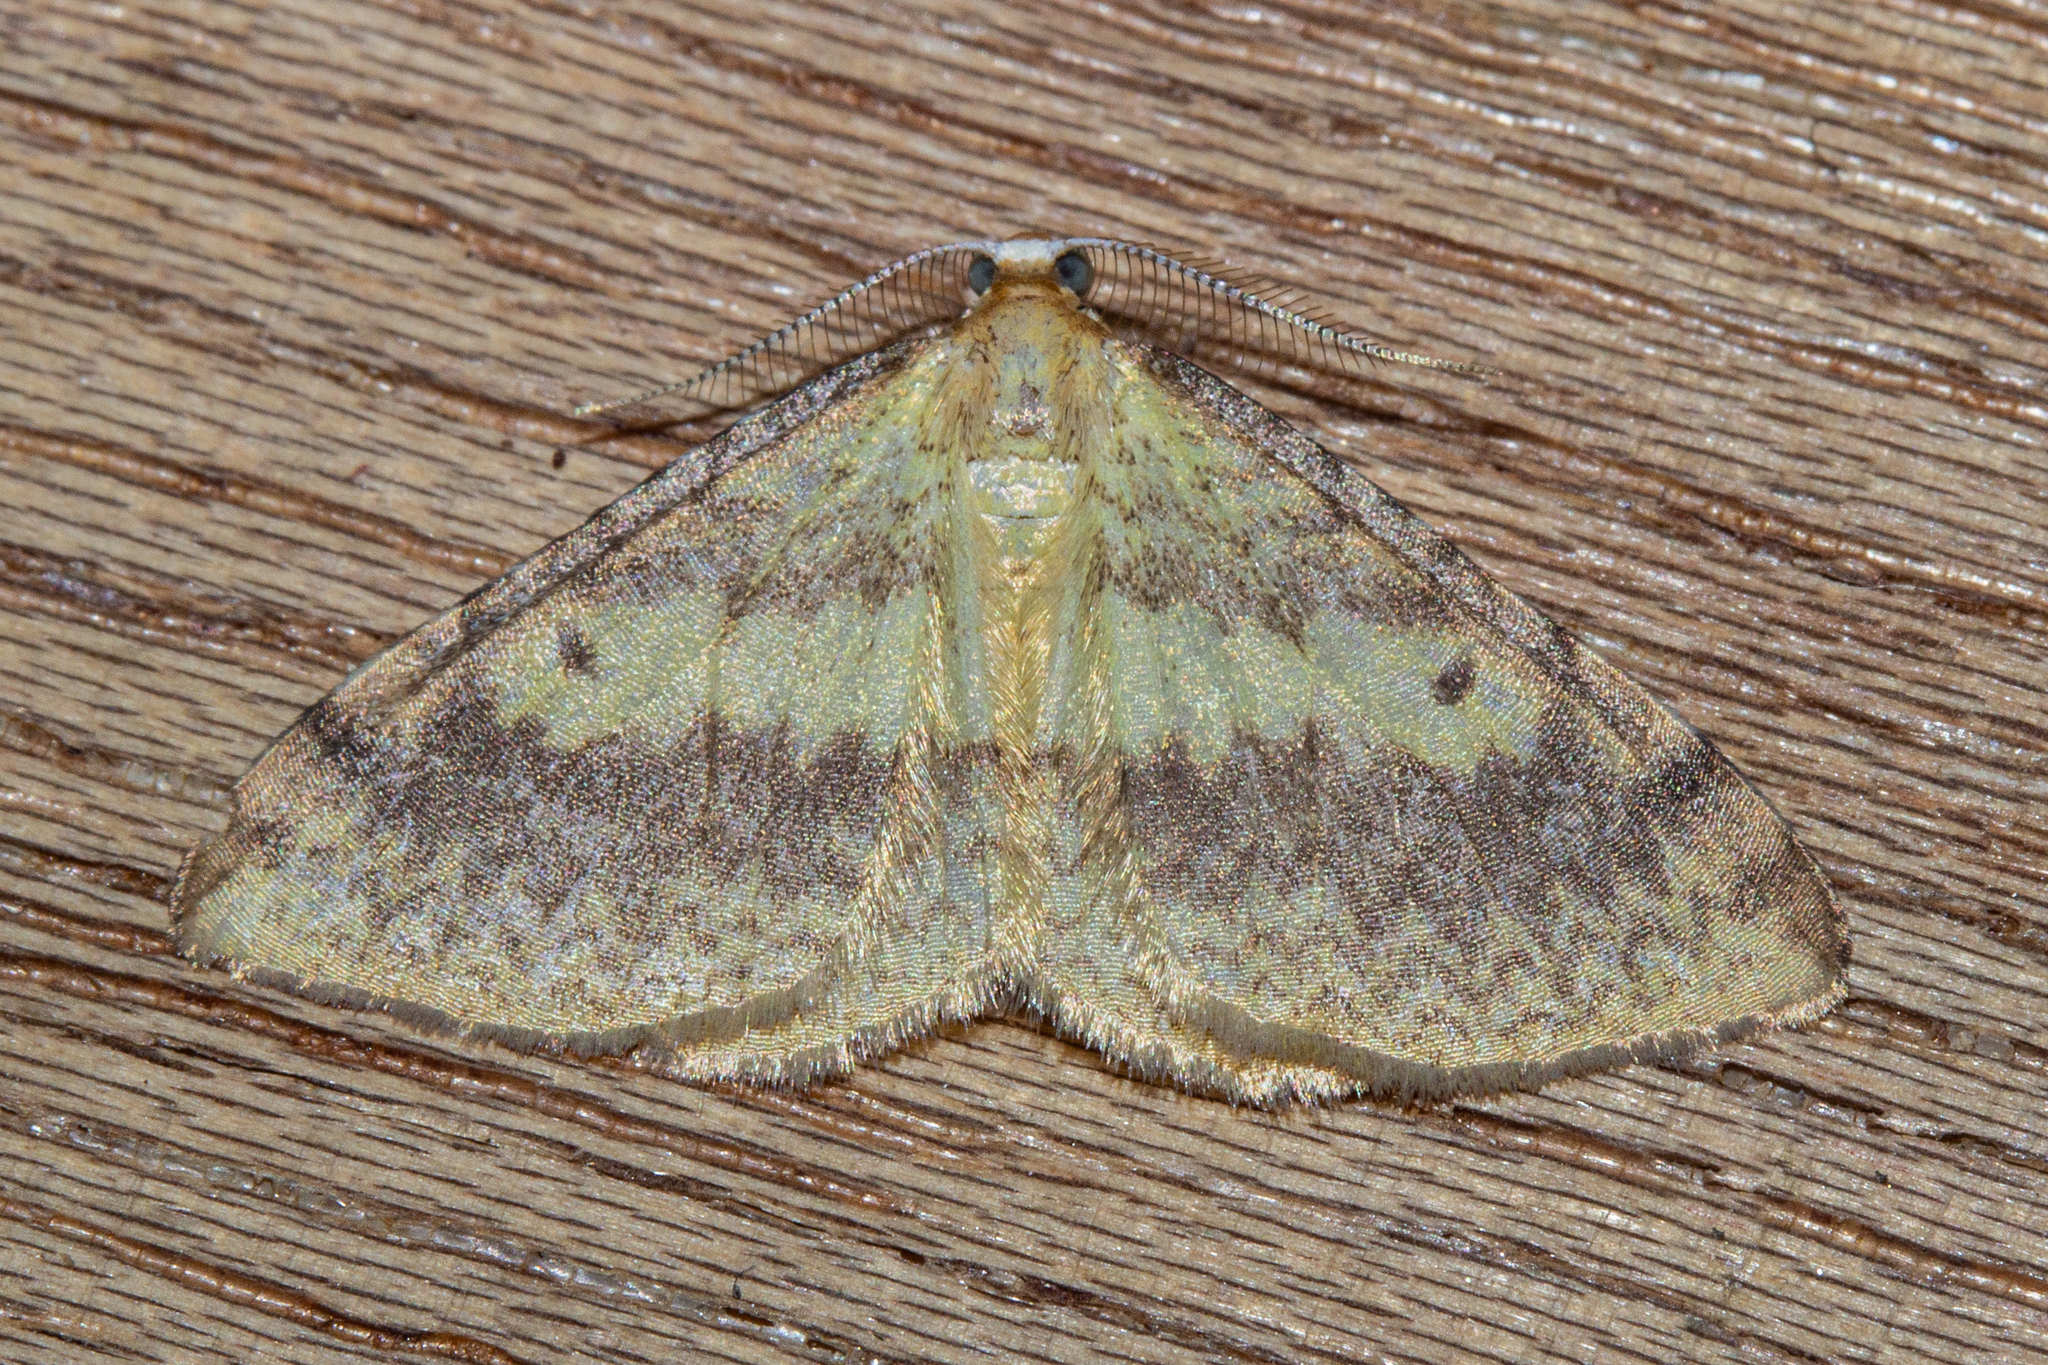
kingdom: Animalia
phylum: Arthropoda
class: Insecta
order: Lepidoptera
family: Geometridae
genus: Epiphryne
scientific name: Epiphryne undosata
